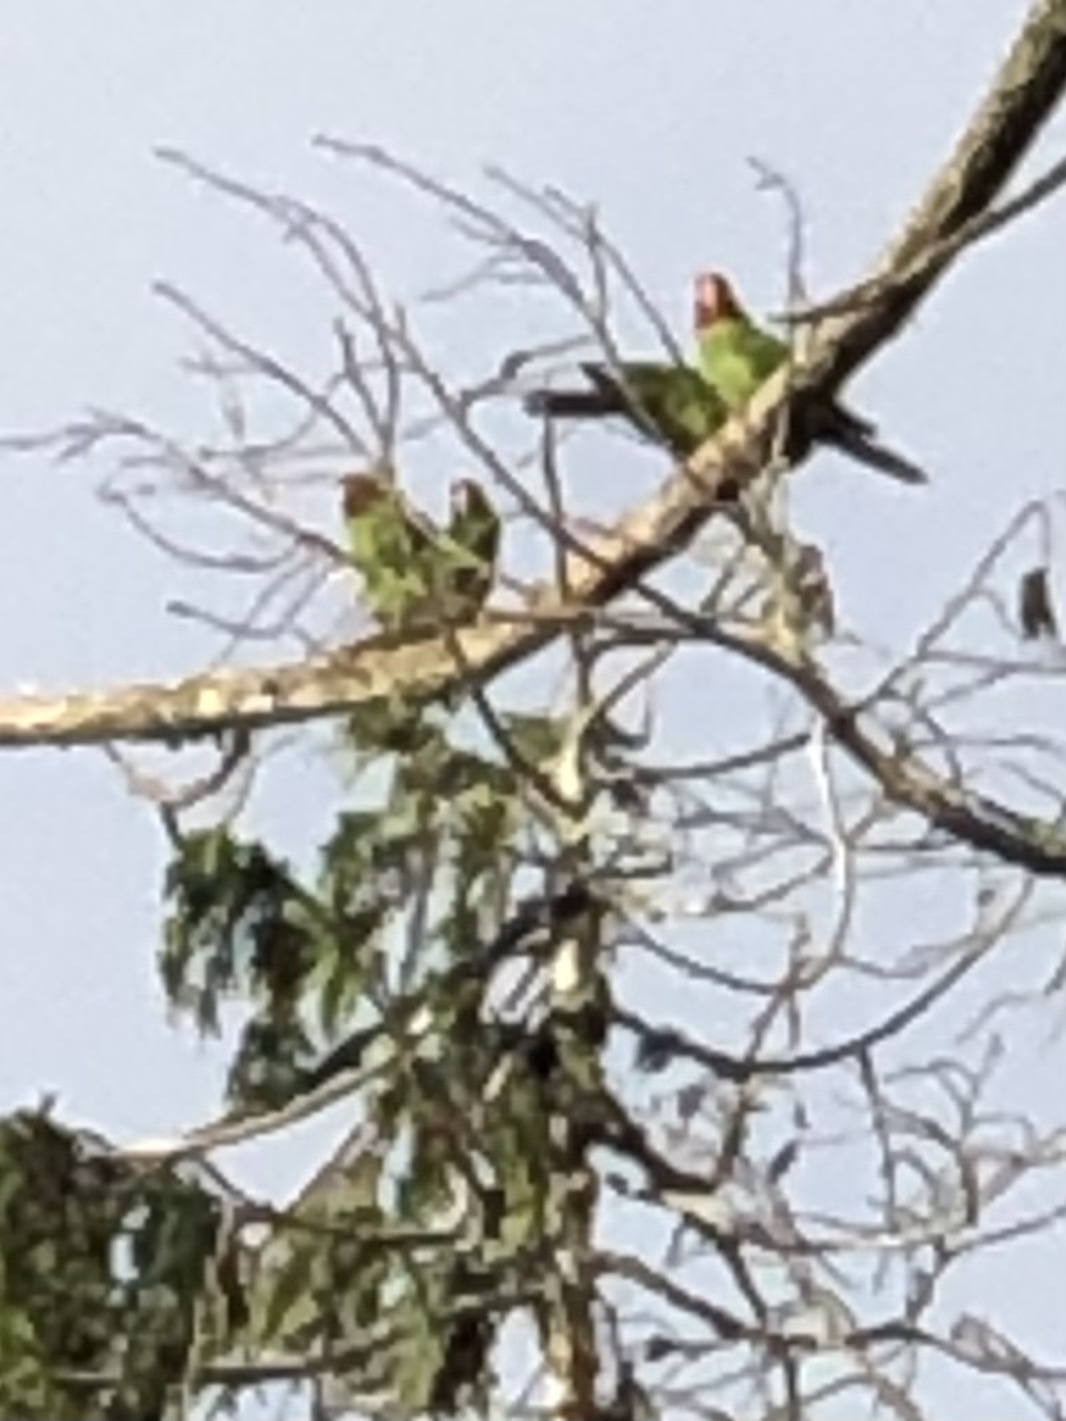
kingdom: Animalia
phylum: Chordata
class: Aves
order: Psittaciformes
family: Psittacidae
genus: Aratinga
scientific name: Aratinga erythrogenys
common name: Red-masked parakeet
